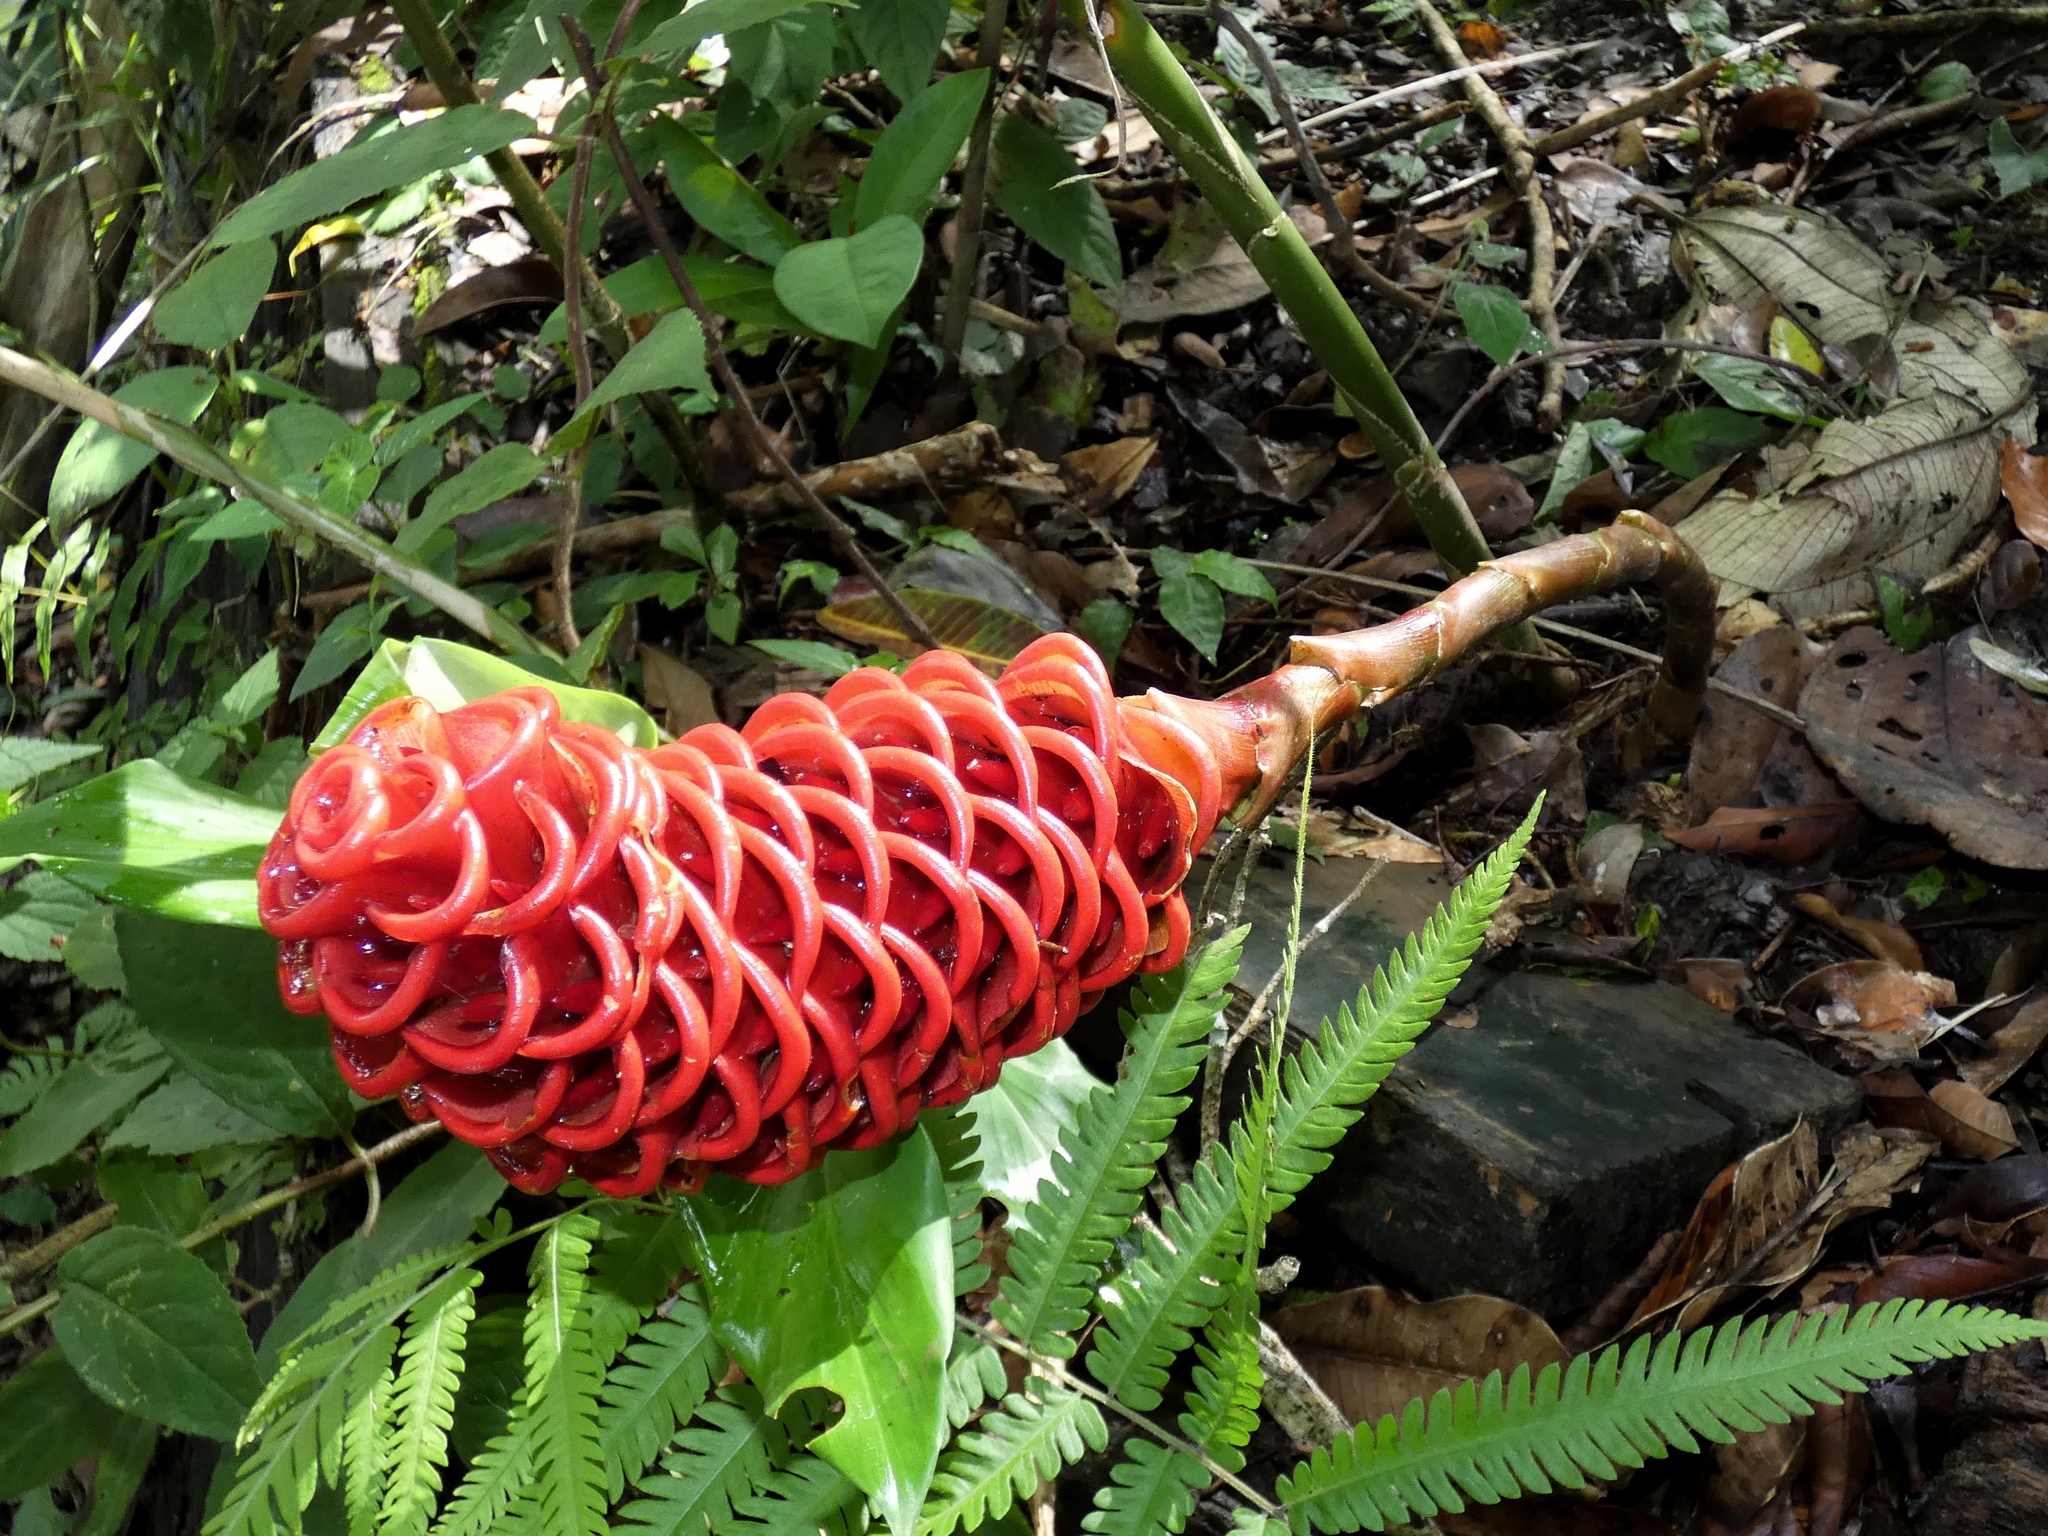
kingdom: Plantae
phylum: Tracheophyta
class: Liliopsida
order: Zingiberales
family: Zingiberaceae
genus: Zingiber
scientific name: Zingiber spectabile
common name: Beehive ginger
